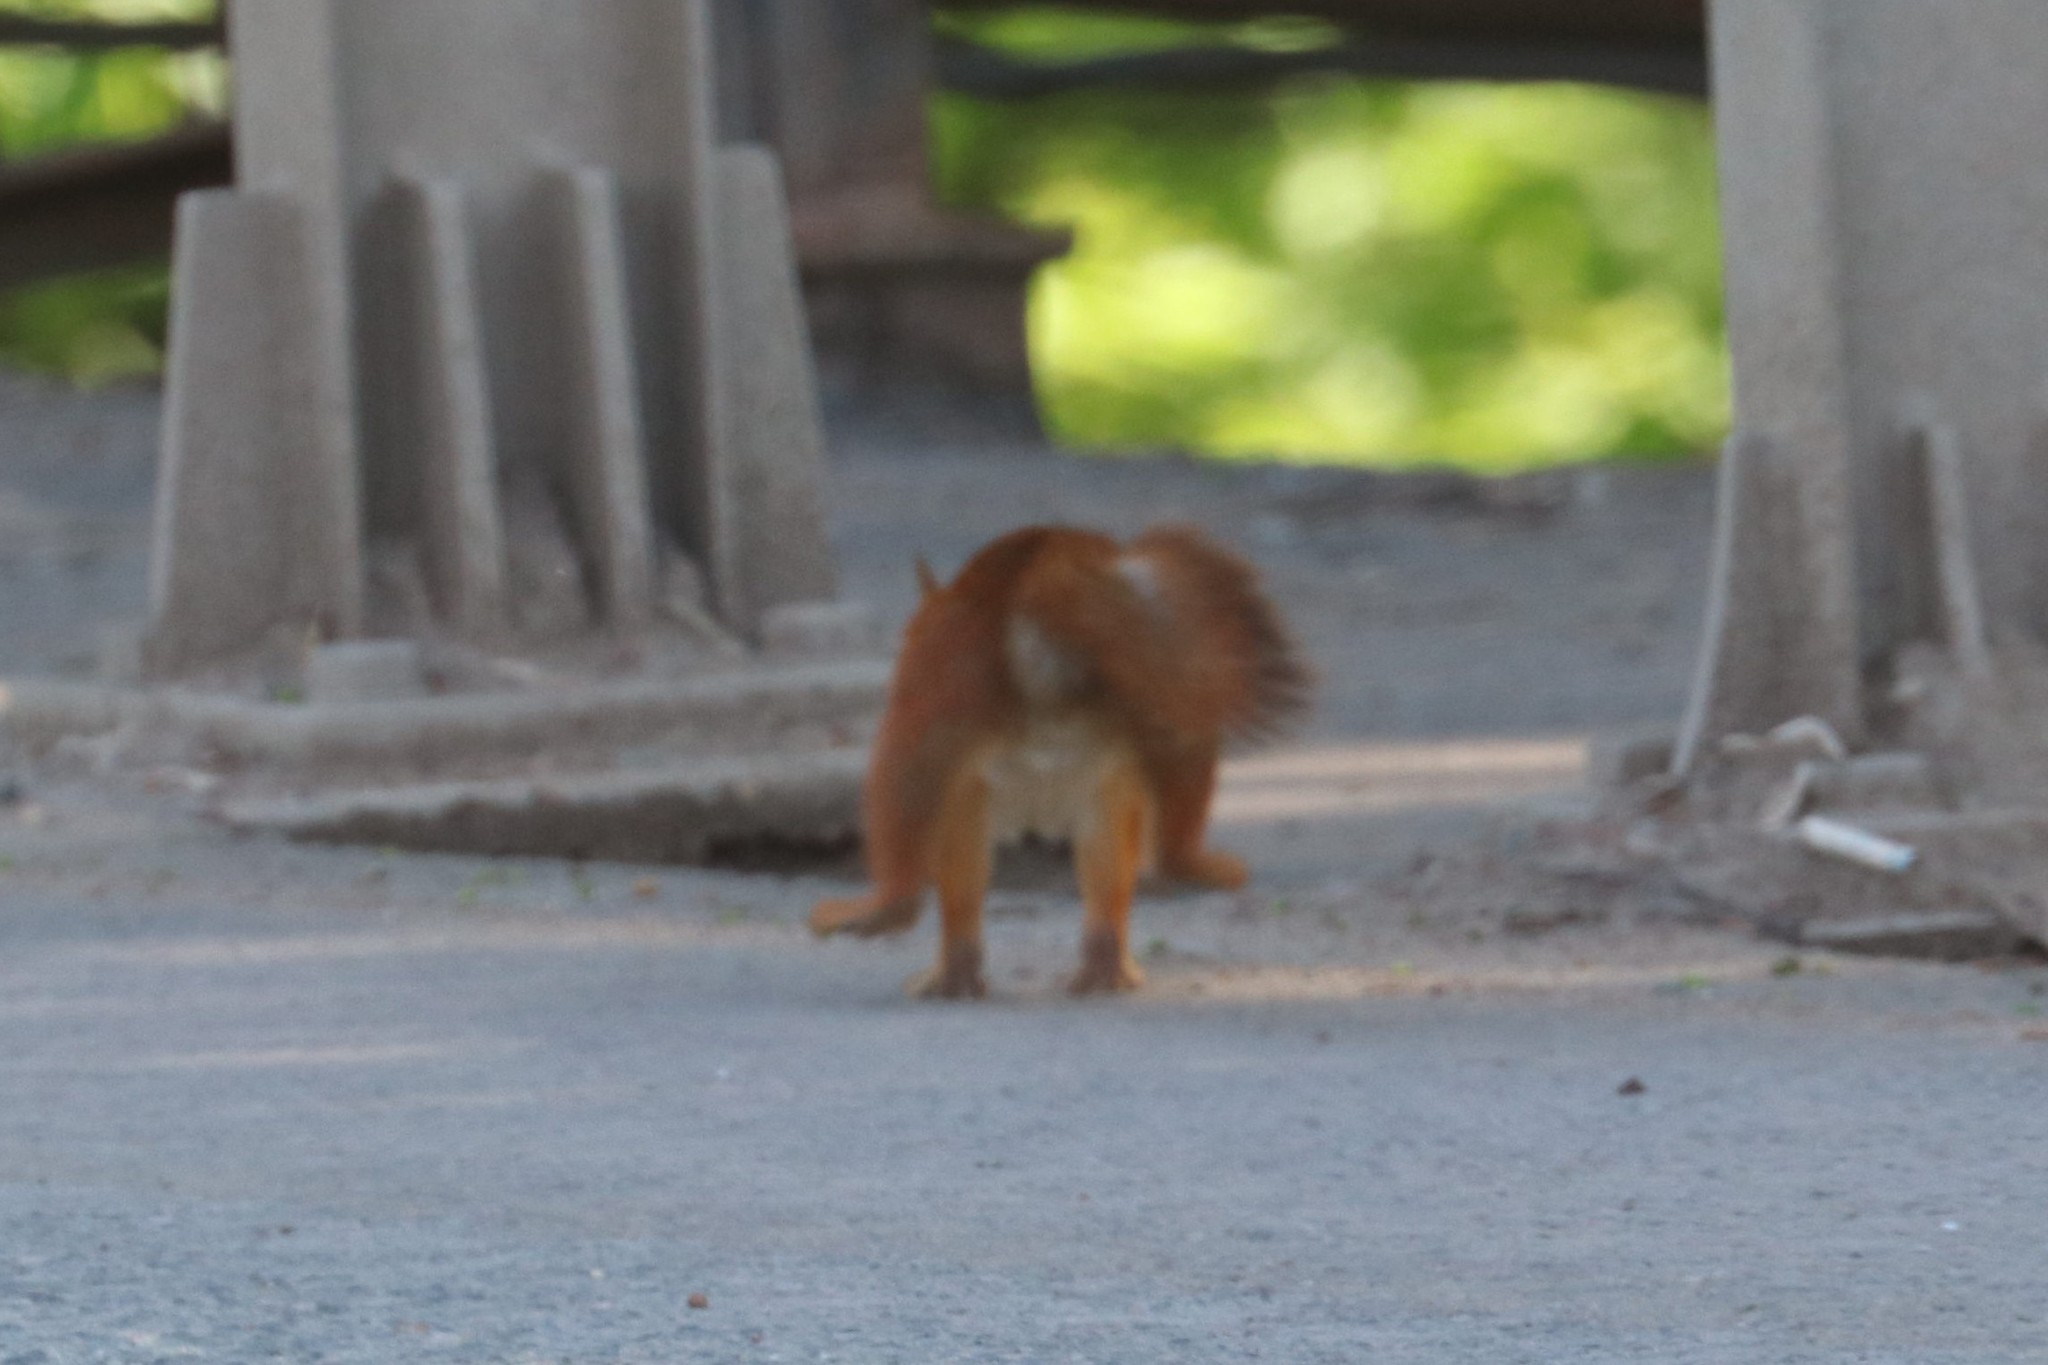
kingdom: Animalia
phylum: Chordata
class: Mammalia
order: Rodentia
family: Sciuridae
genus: Sciurus
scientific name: Sciurus vulgaris
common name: Eurasian red squirrel
